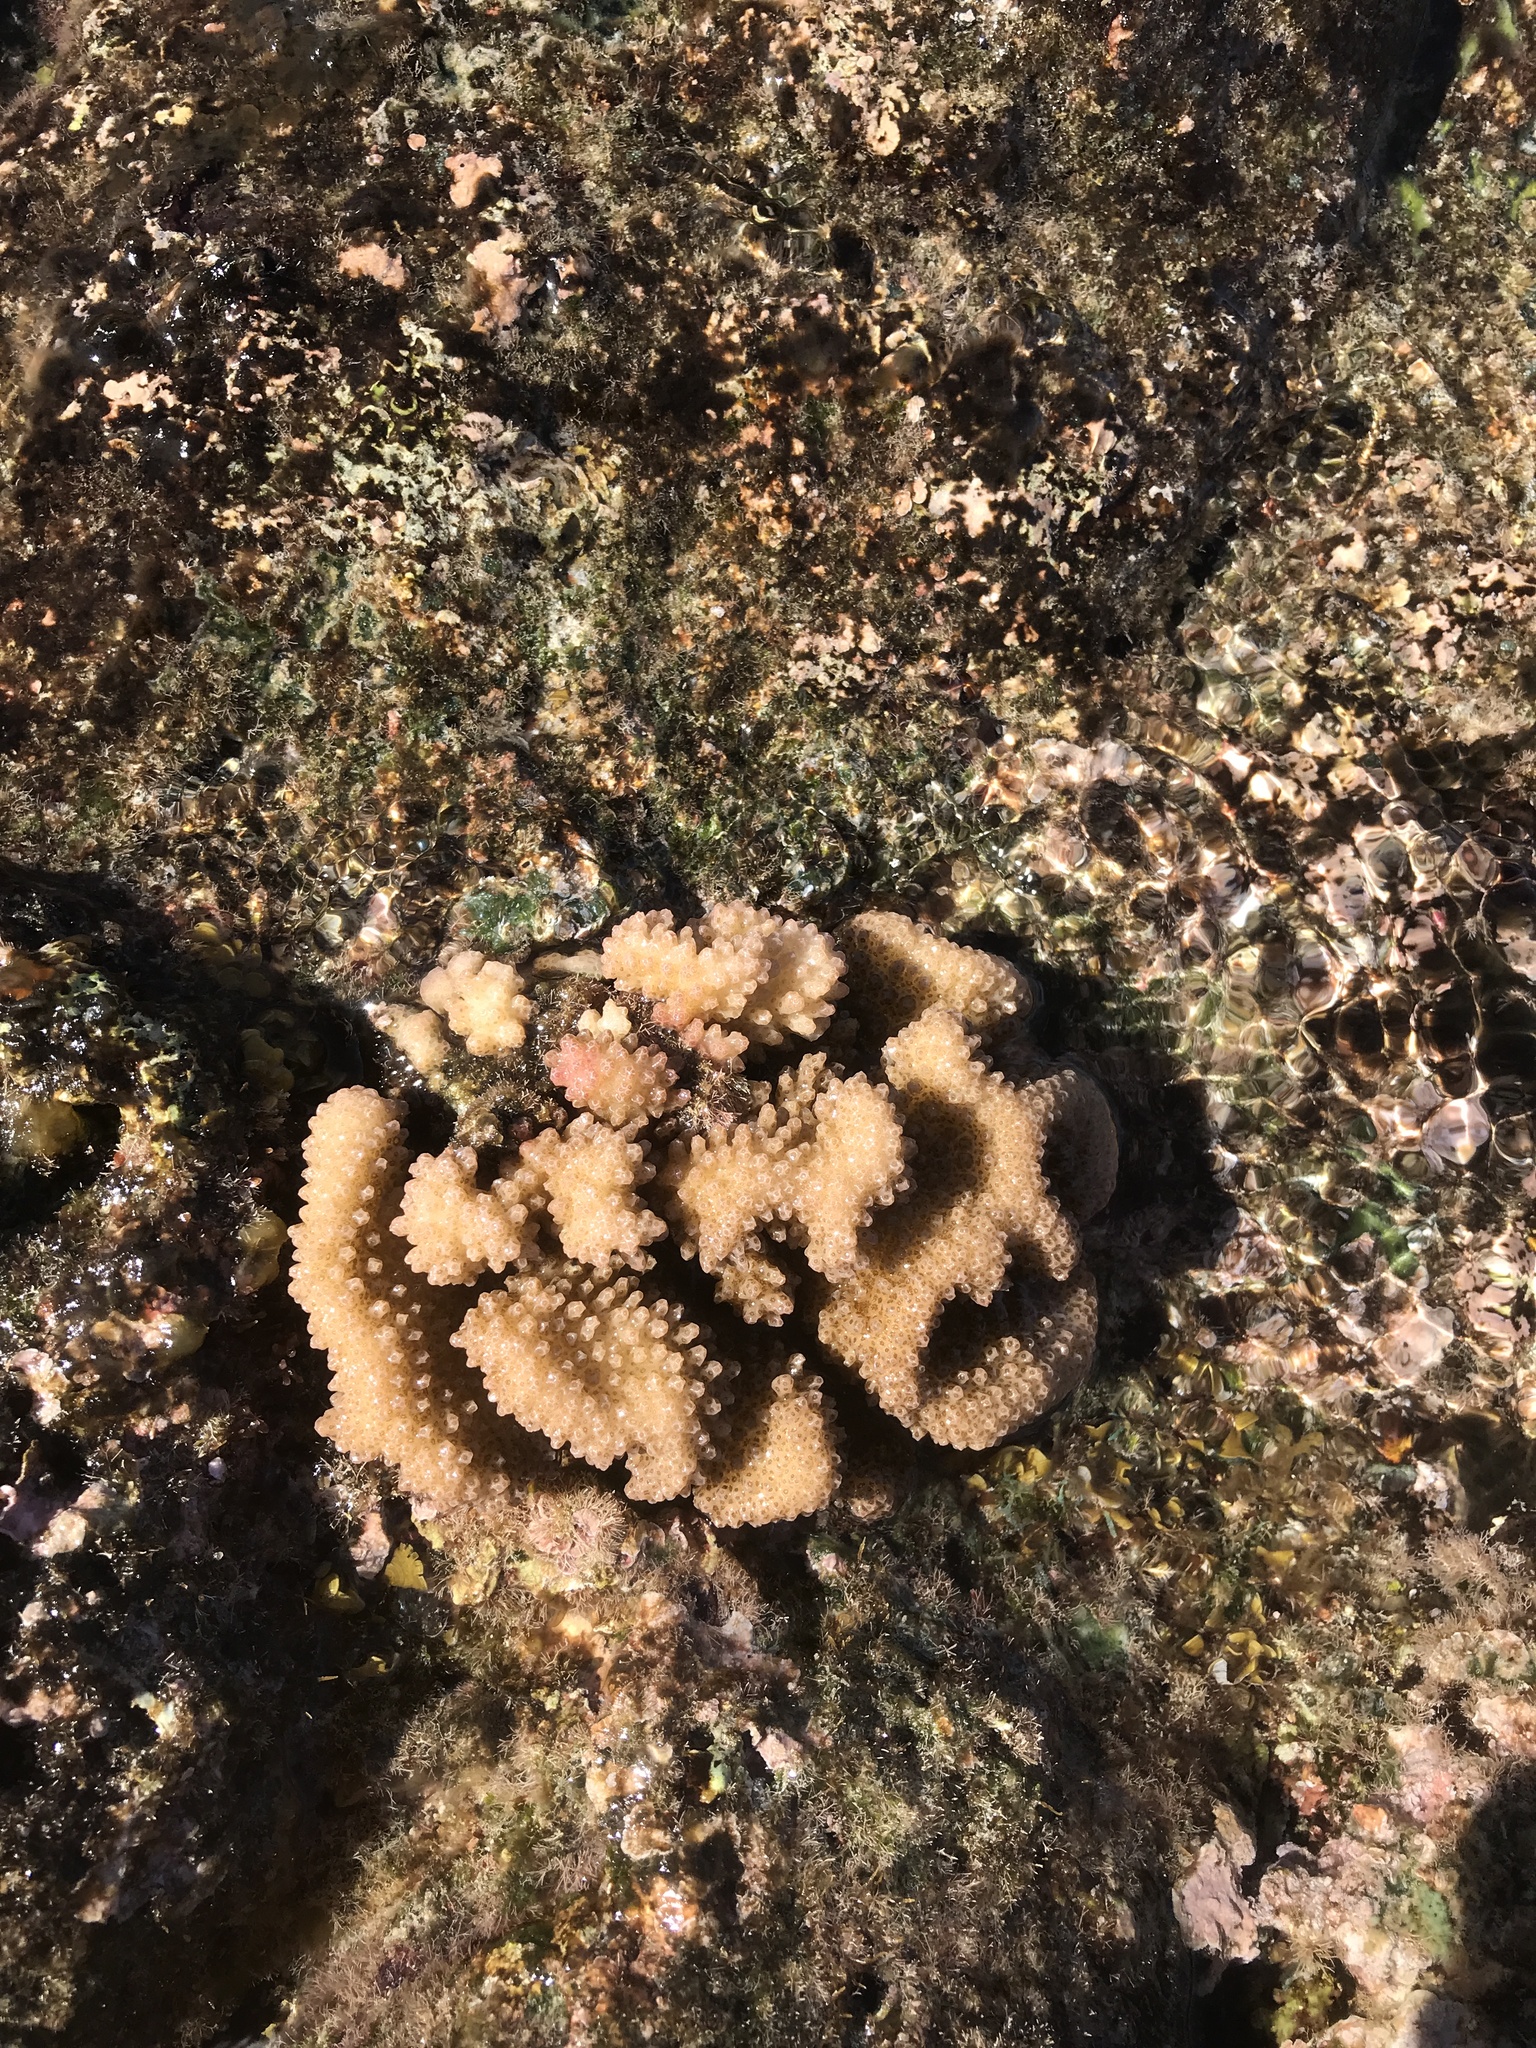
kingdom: Animalia
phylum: Cnidaria
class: Anthozoa
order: Scleractinia
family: Pocilloporidae
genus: Pocillopora
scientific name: Pocillopora meandrina
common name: Cauliflower coral
